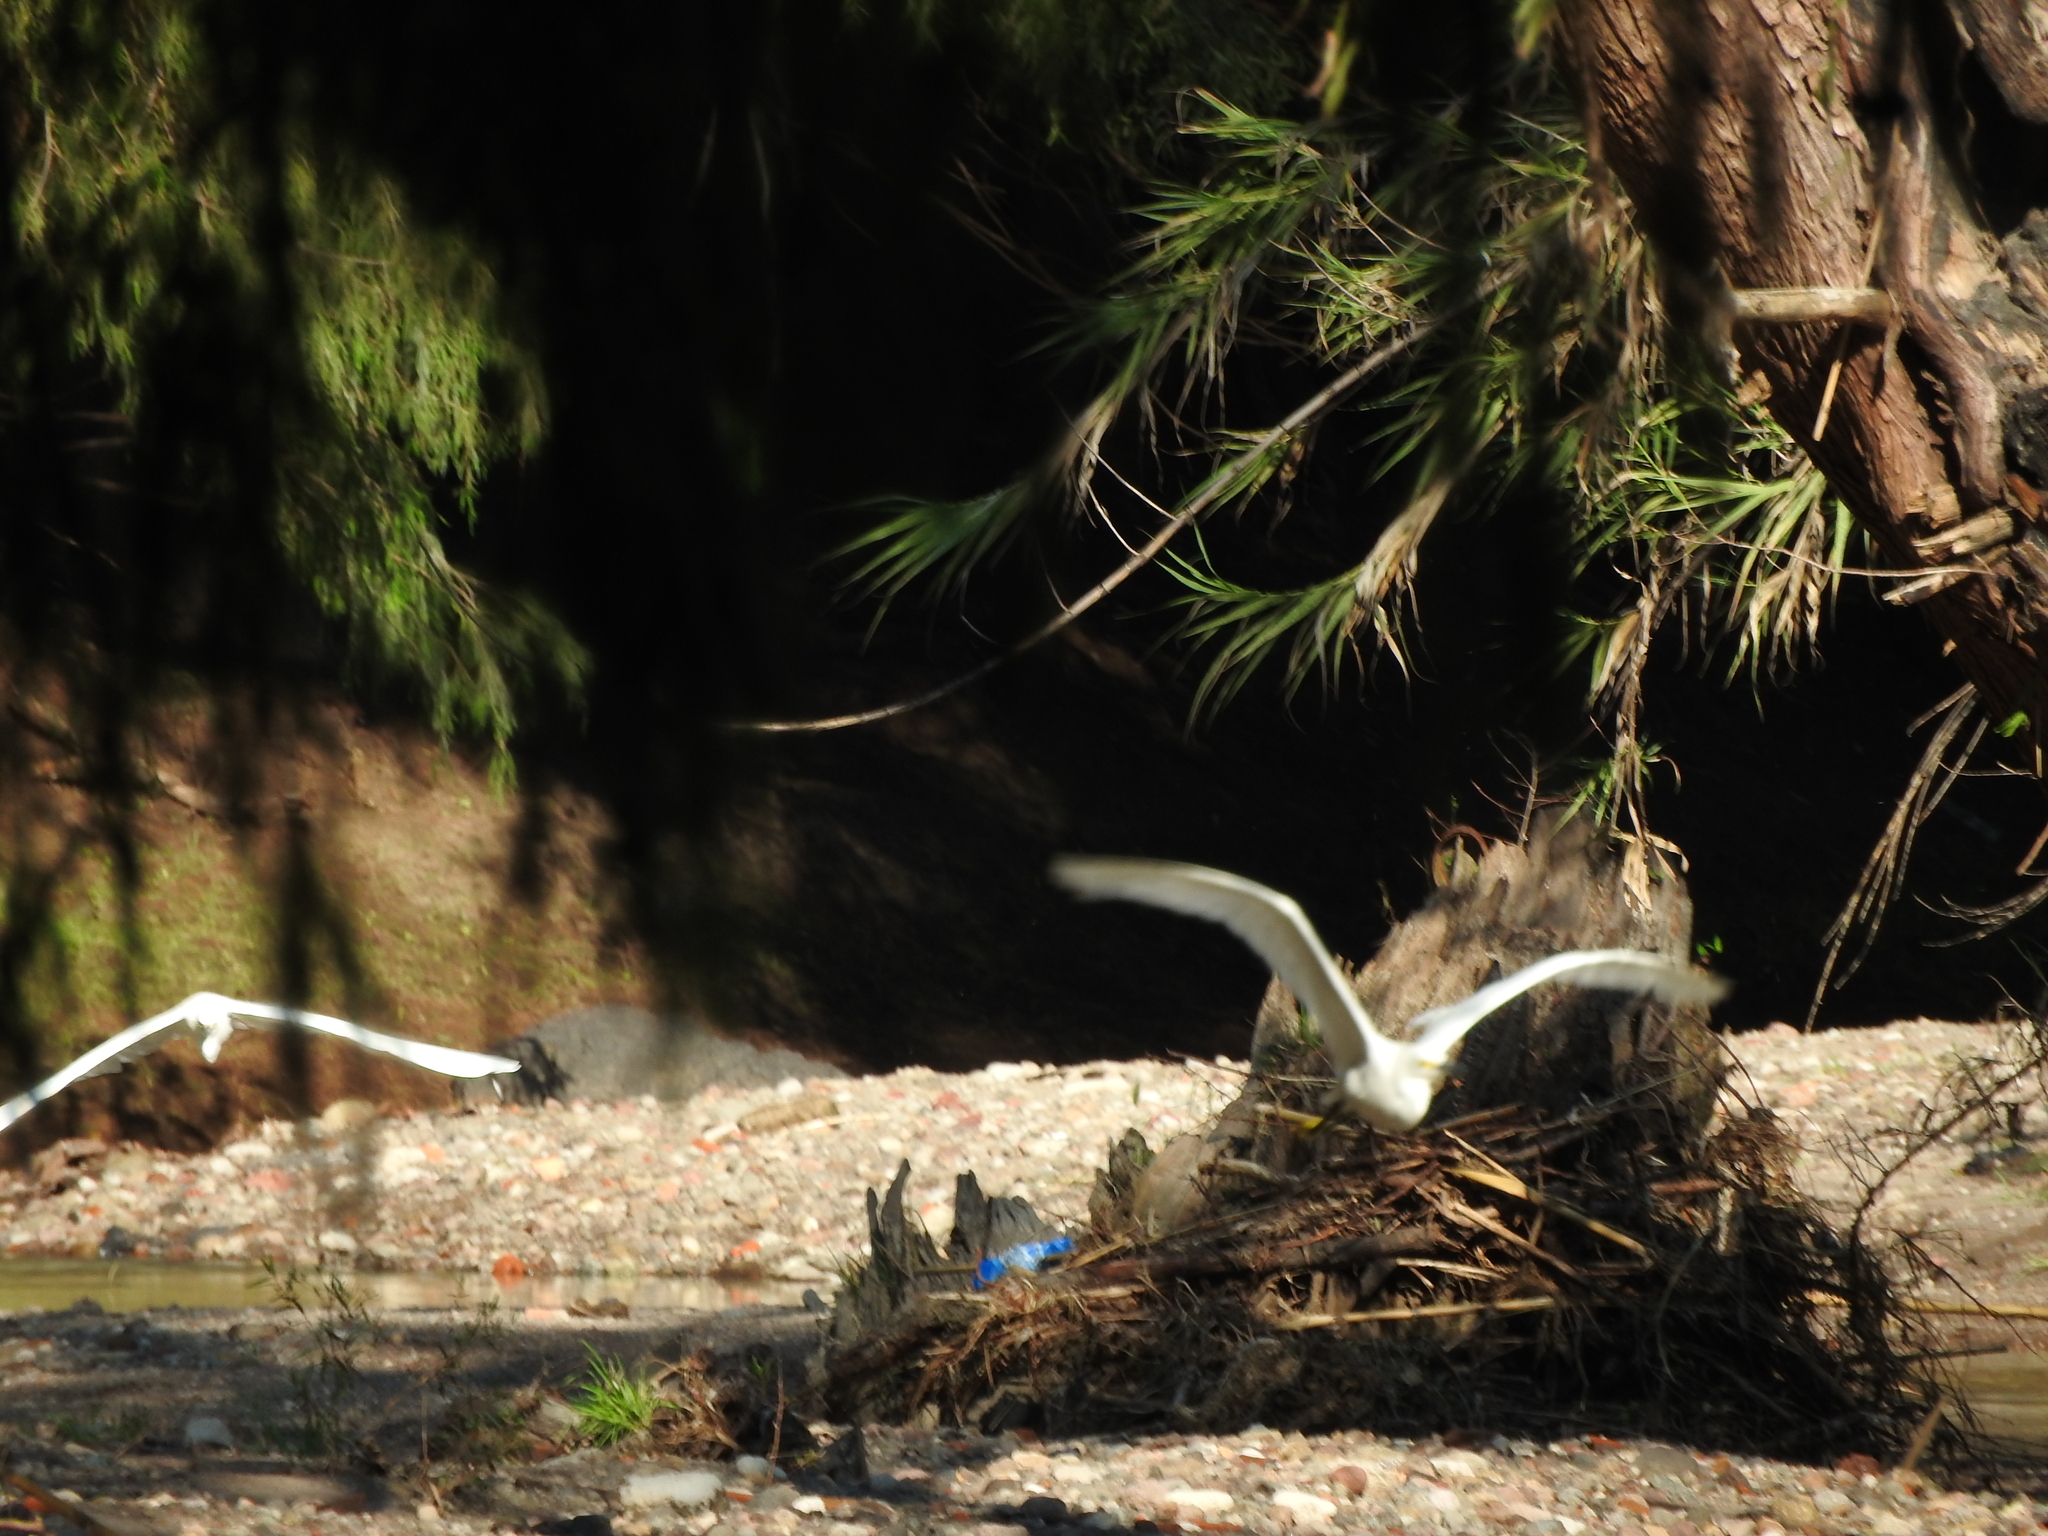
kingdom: Animalia
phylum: Chordata
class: Aves
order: Pelecaniformes
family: Ardeidae
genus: Egretta
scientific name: Egretta thula
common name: Snowy egret
